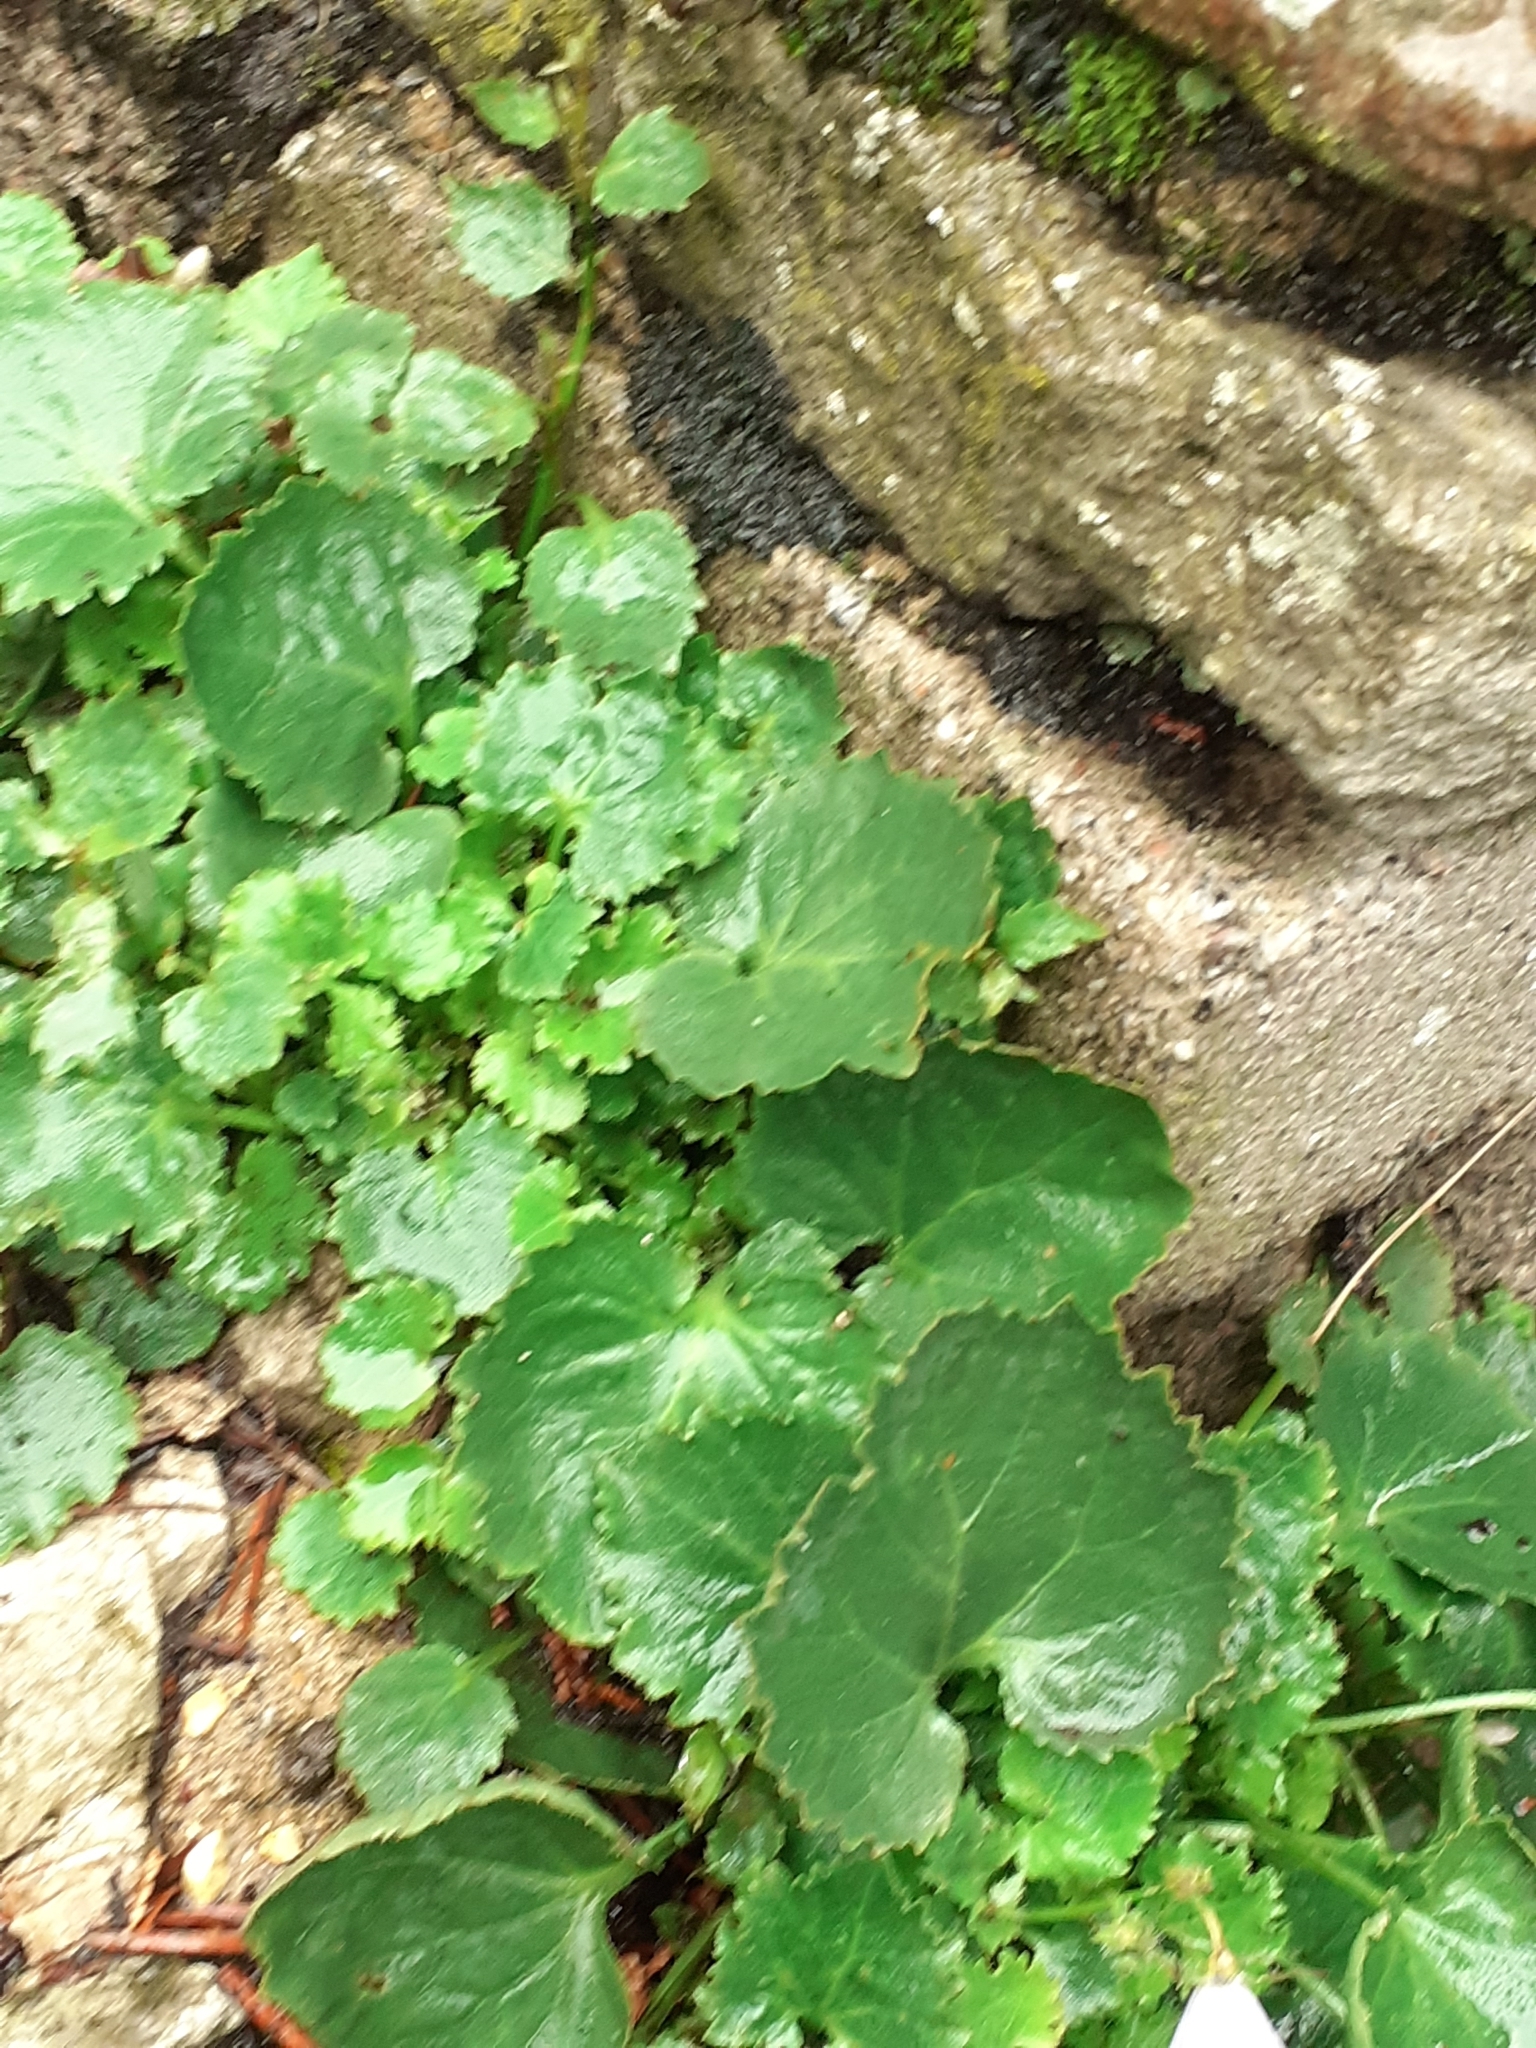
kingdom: Plantae
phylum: Tracheophyta
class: Magnoliopsida
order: Asterales
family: Campanulaceae
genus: Campanula
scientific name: Campanula poscharskyana
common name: Trailing bellflower
